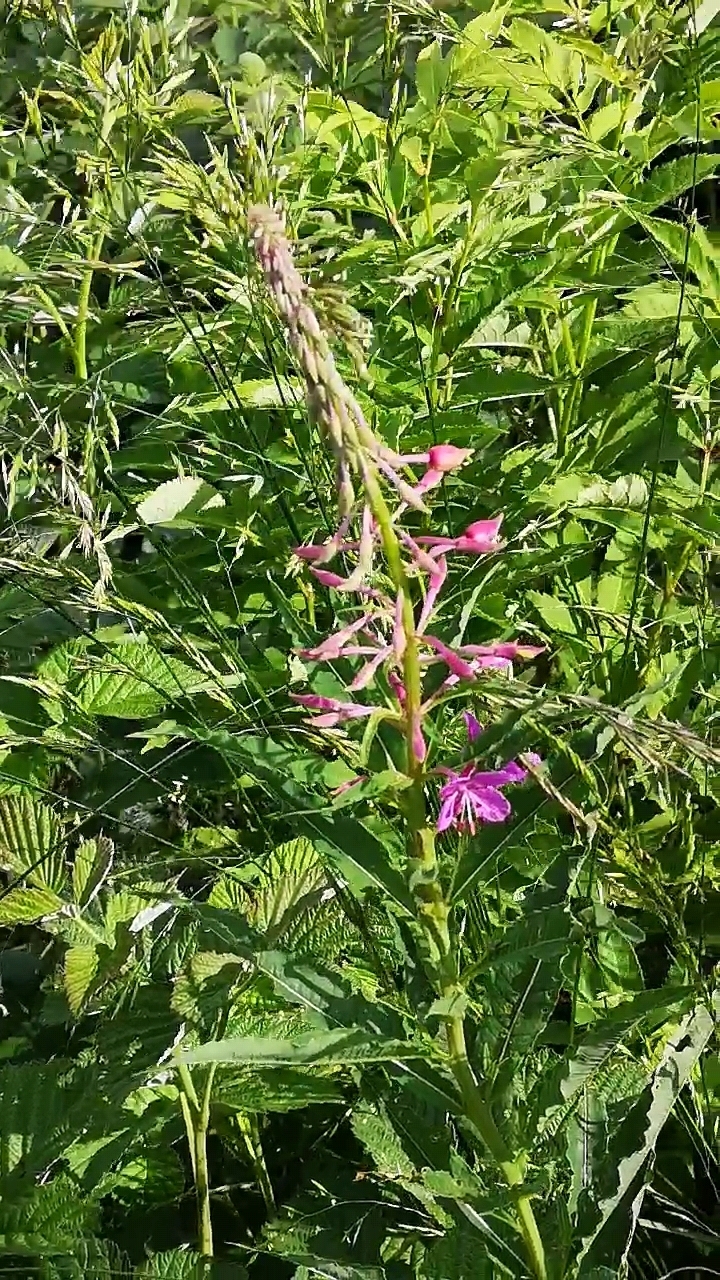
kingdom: Plantae
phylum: Tracheophyta
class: Magnoliopsida
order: Myrtales
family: Onagraceae
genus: Chamaenerion
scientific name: Chamaenerion angustifolium
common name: Fireweed
